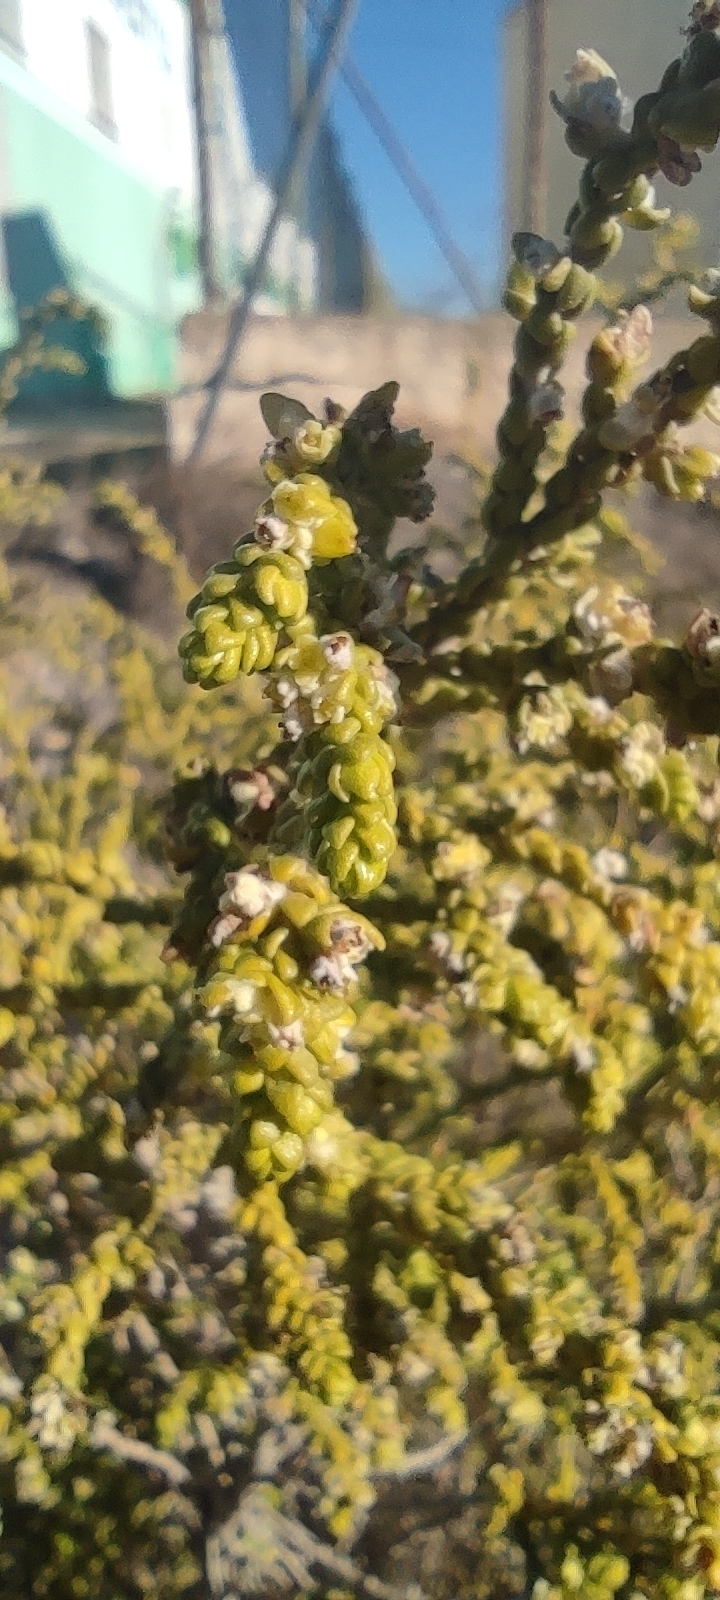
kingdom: Plantae
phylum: Tracheophyta
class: Magnoliopsida
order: Malvales
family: Thymelaeaceae
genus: Thymelaea
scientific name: Thymelaea hirsuta
